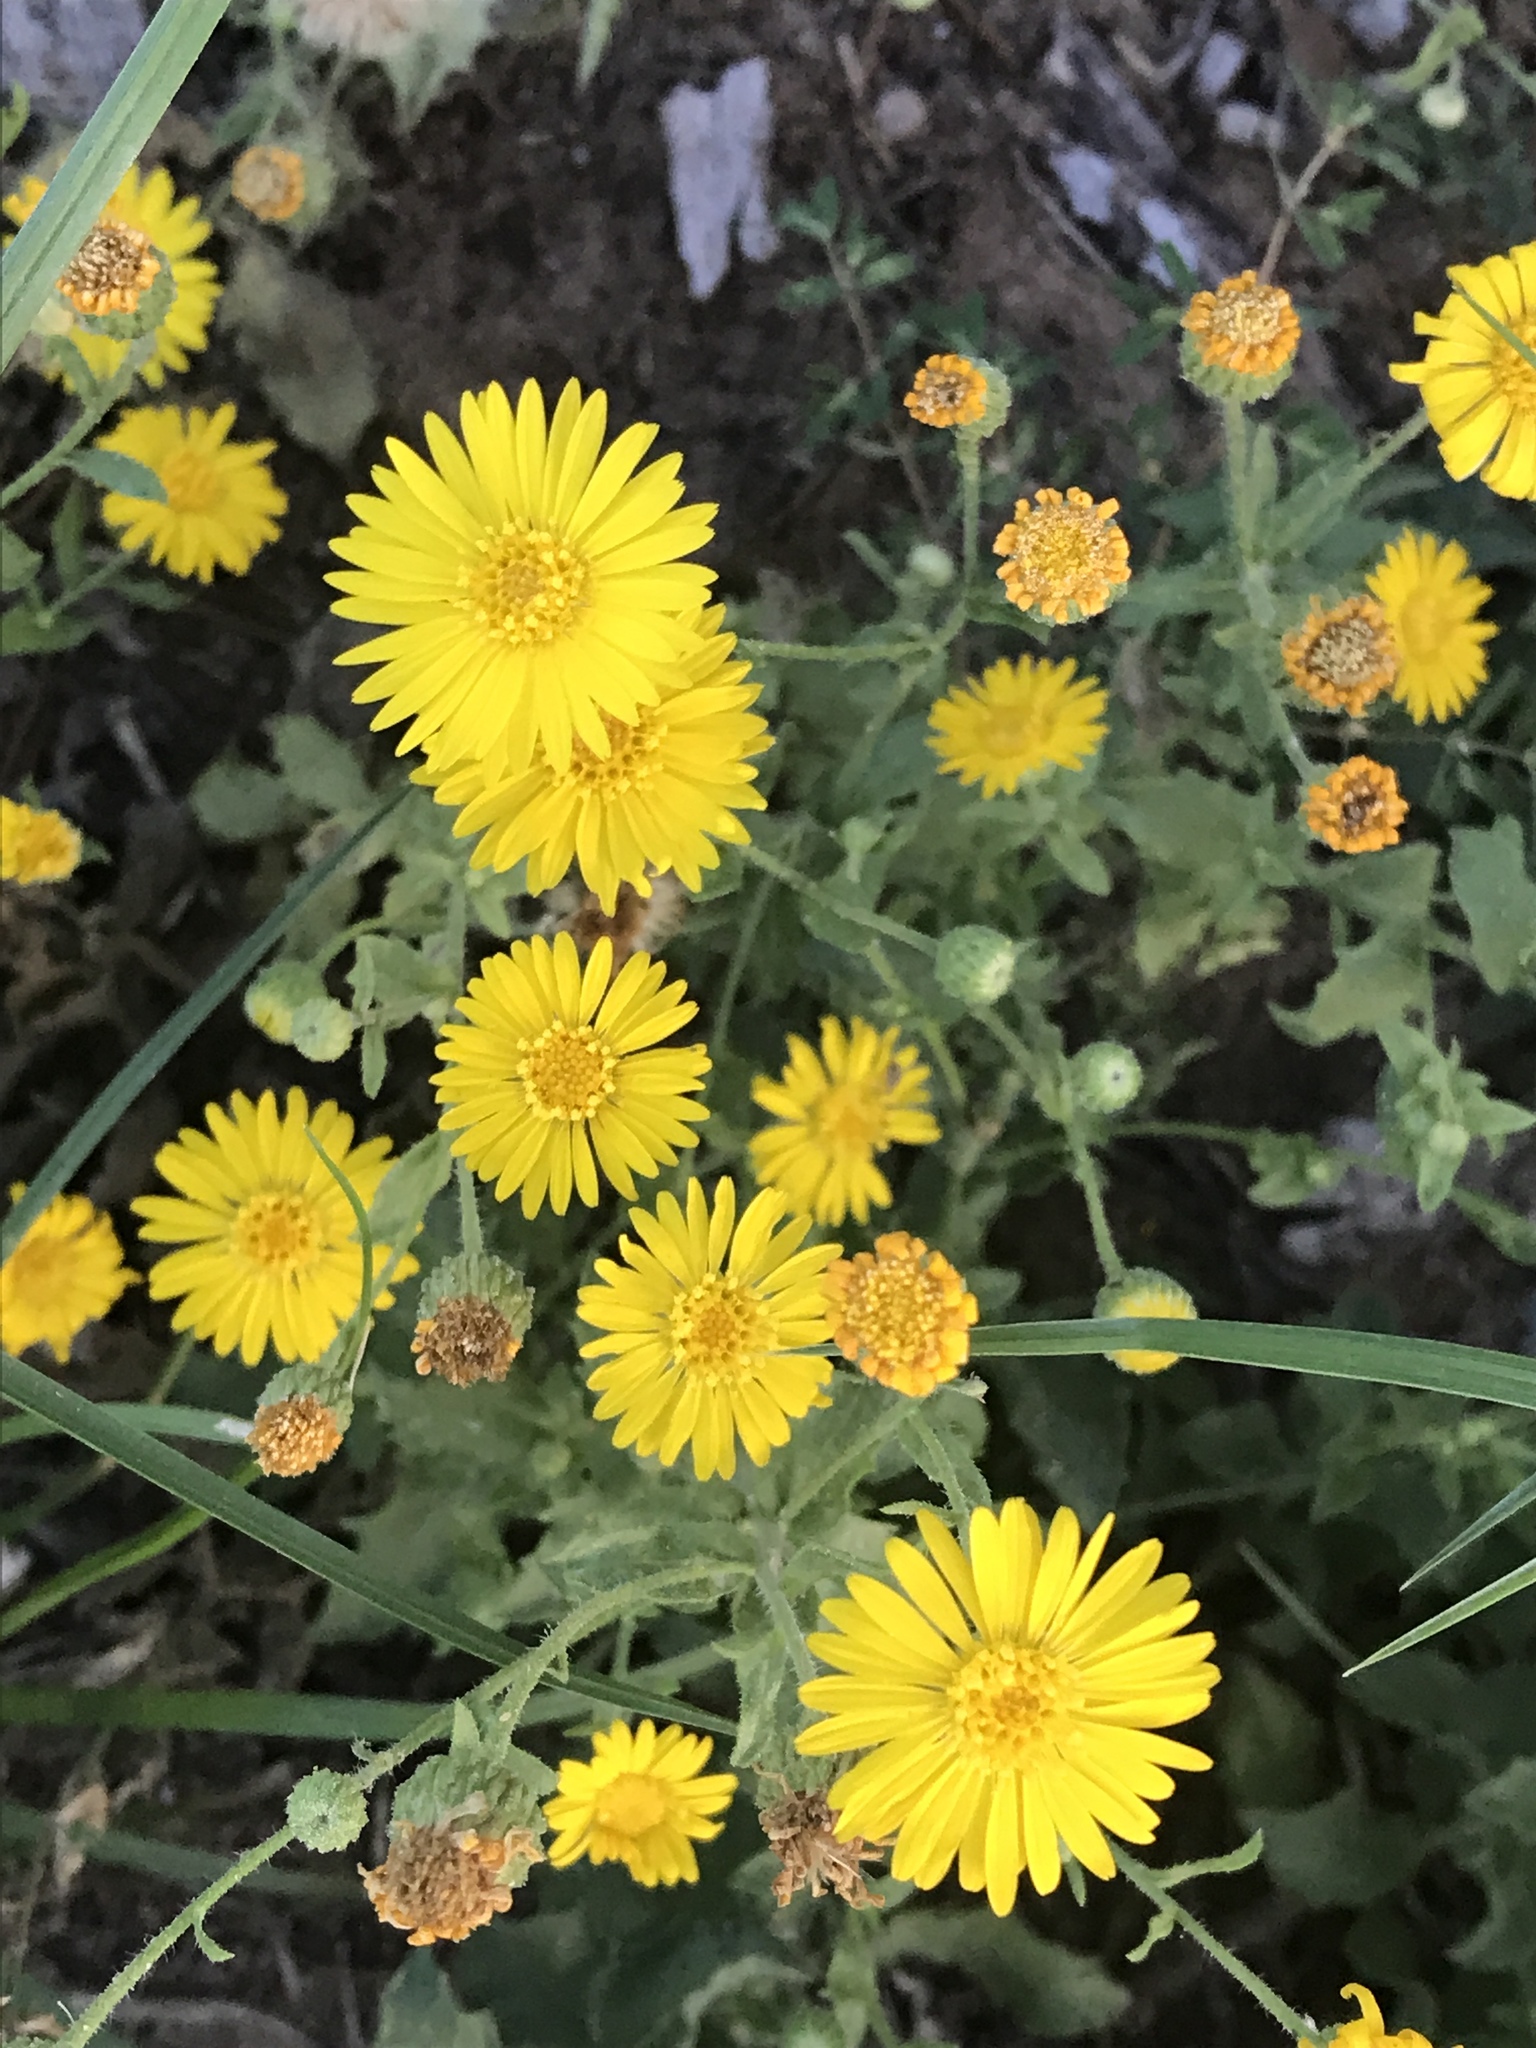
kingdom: Plantae
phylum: Tracheophyta
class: Magnoliopsida
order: Asterales
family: Asteraceae
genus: Heterotheca
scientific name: Heterotheca subaxillaris
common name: Camphorweed
